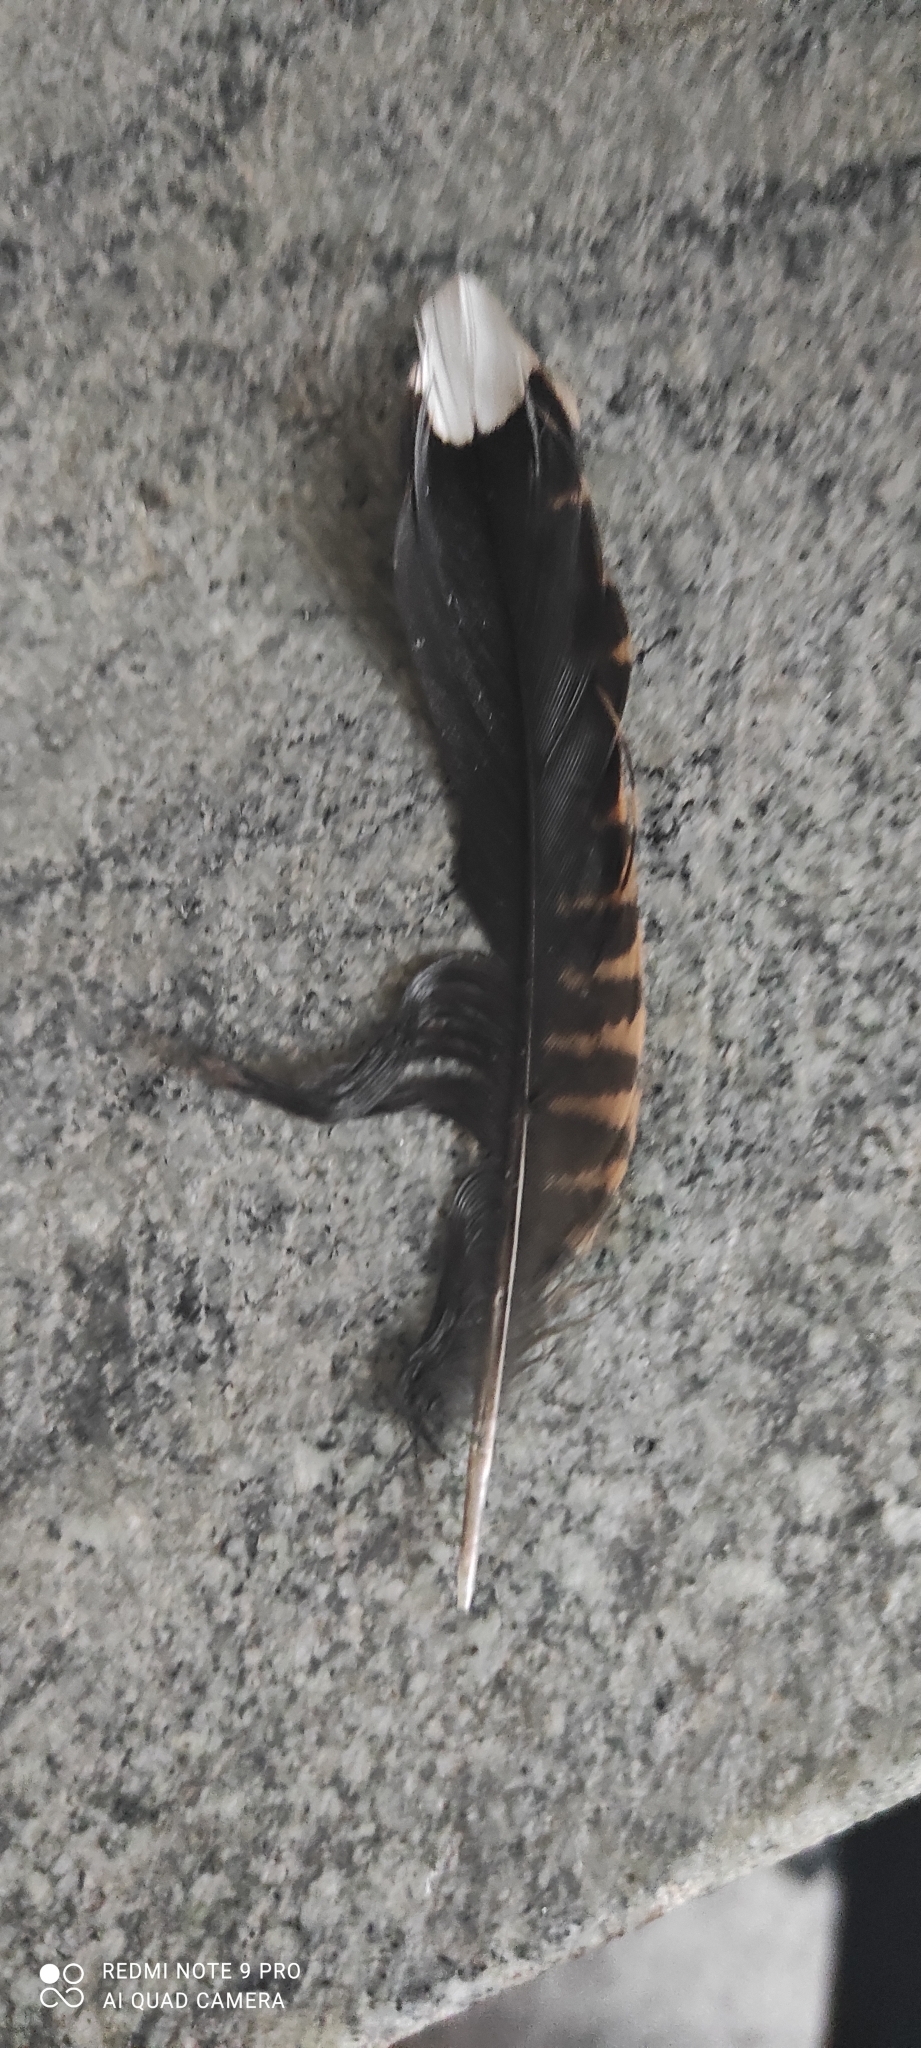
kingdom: Animalia
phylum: Chordata
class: Aves
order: Charadriiformes
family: Scolopacidae
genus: Scolopax
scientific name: Scolopax rusticola
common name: Eurasian woodcock
